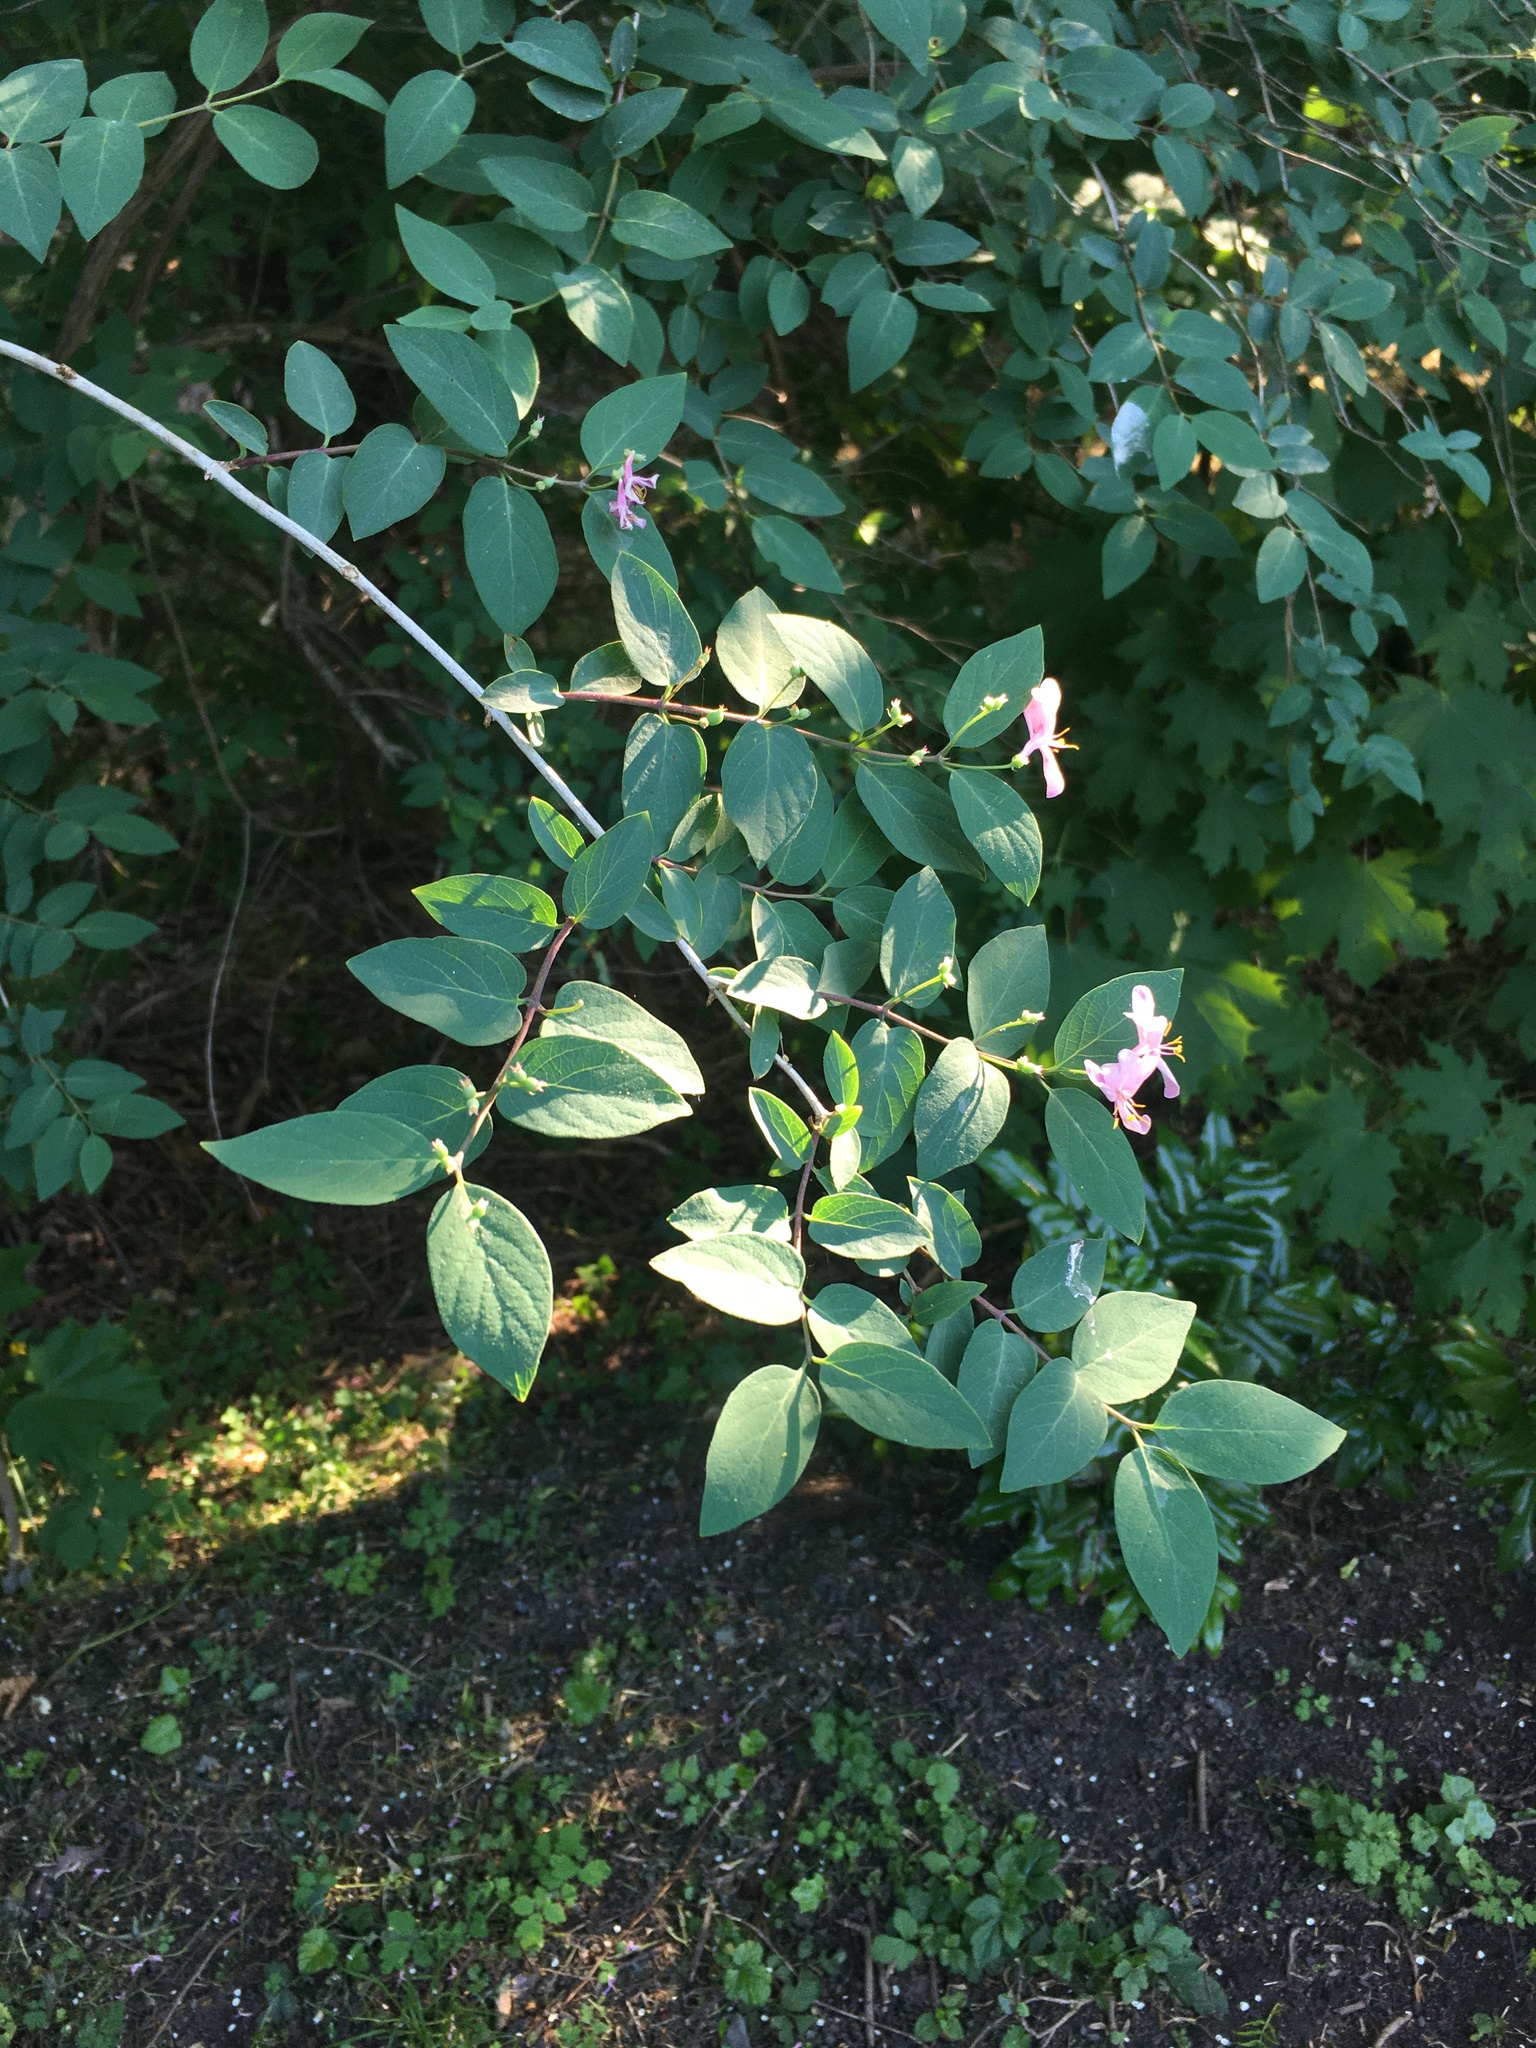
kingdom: Plantae
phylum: Tracheophyta
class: Magnoliopsida
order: Dipsacales
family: Caprifoliaceae
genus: Lonicera
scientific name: Lonicera tatarica
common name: Tatarian honeysuckle
